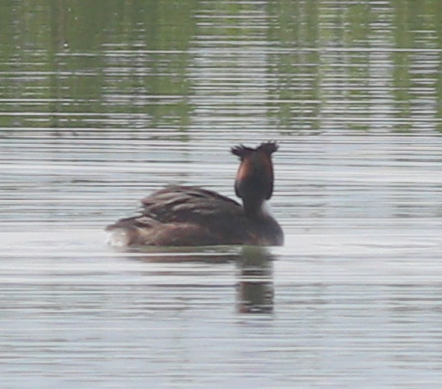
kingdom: Animalia
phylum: Chordata
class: Aves
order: Podicipediformes
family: Podicipedidae
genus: Podiceps
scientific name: Podiceps cristatus
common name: Great crested grebe
